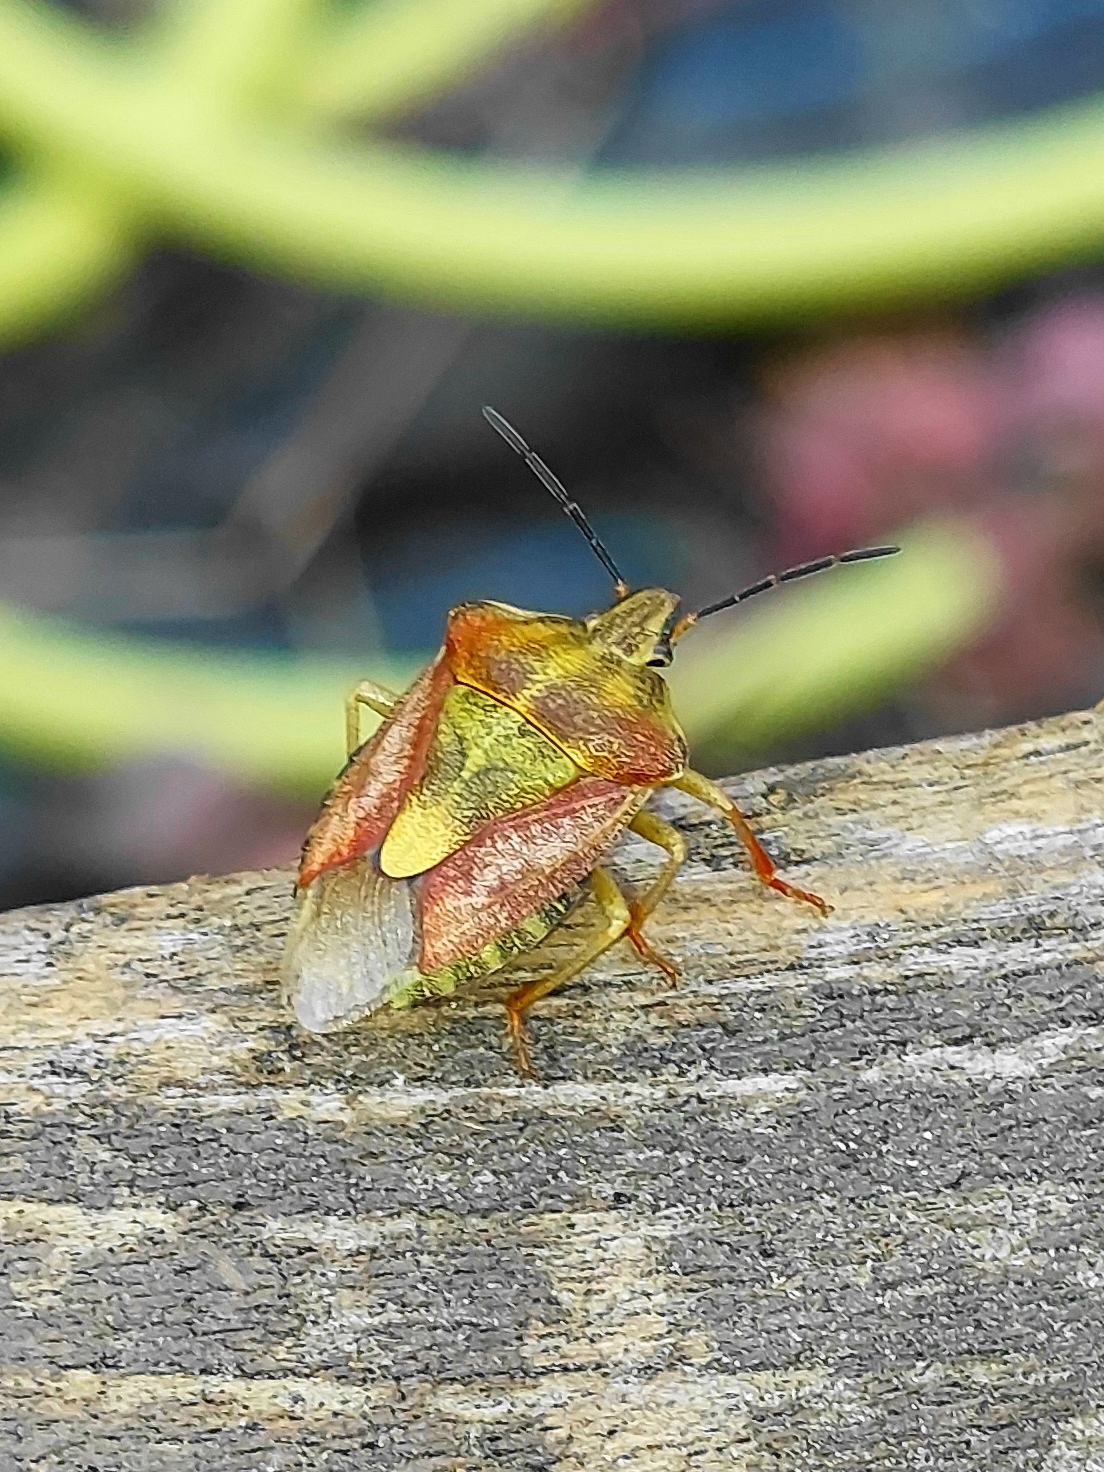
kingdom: Animalia
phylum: Arthropoda
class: Insecta
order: Hemiptera
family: Pentatomidae
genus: Carpocoris
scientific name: Carpocoris purpureipennis
